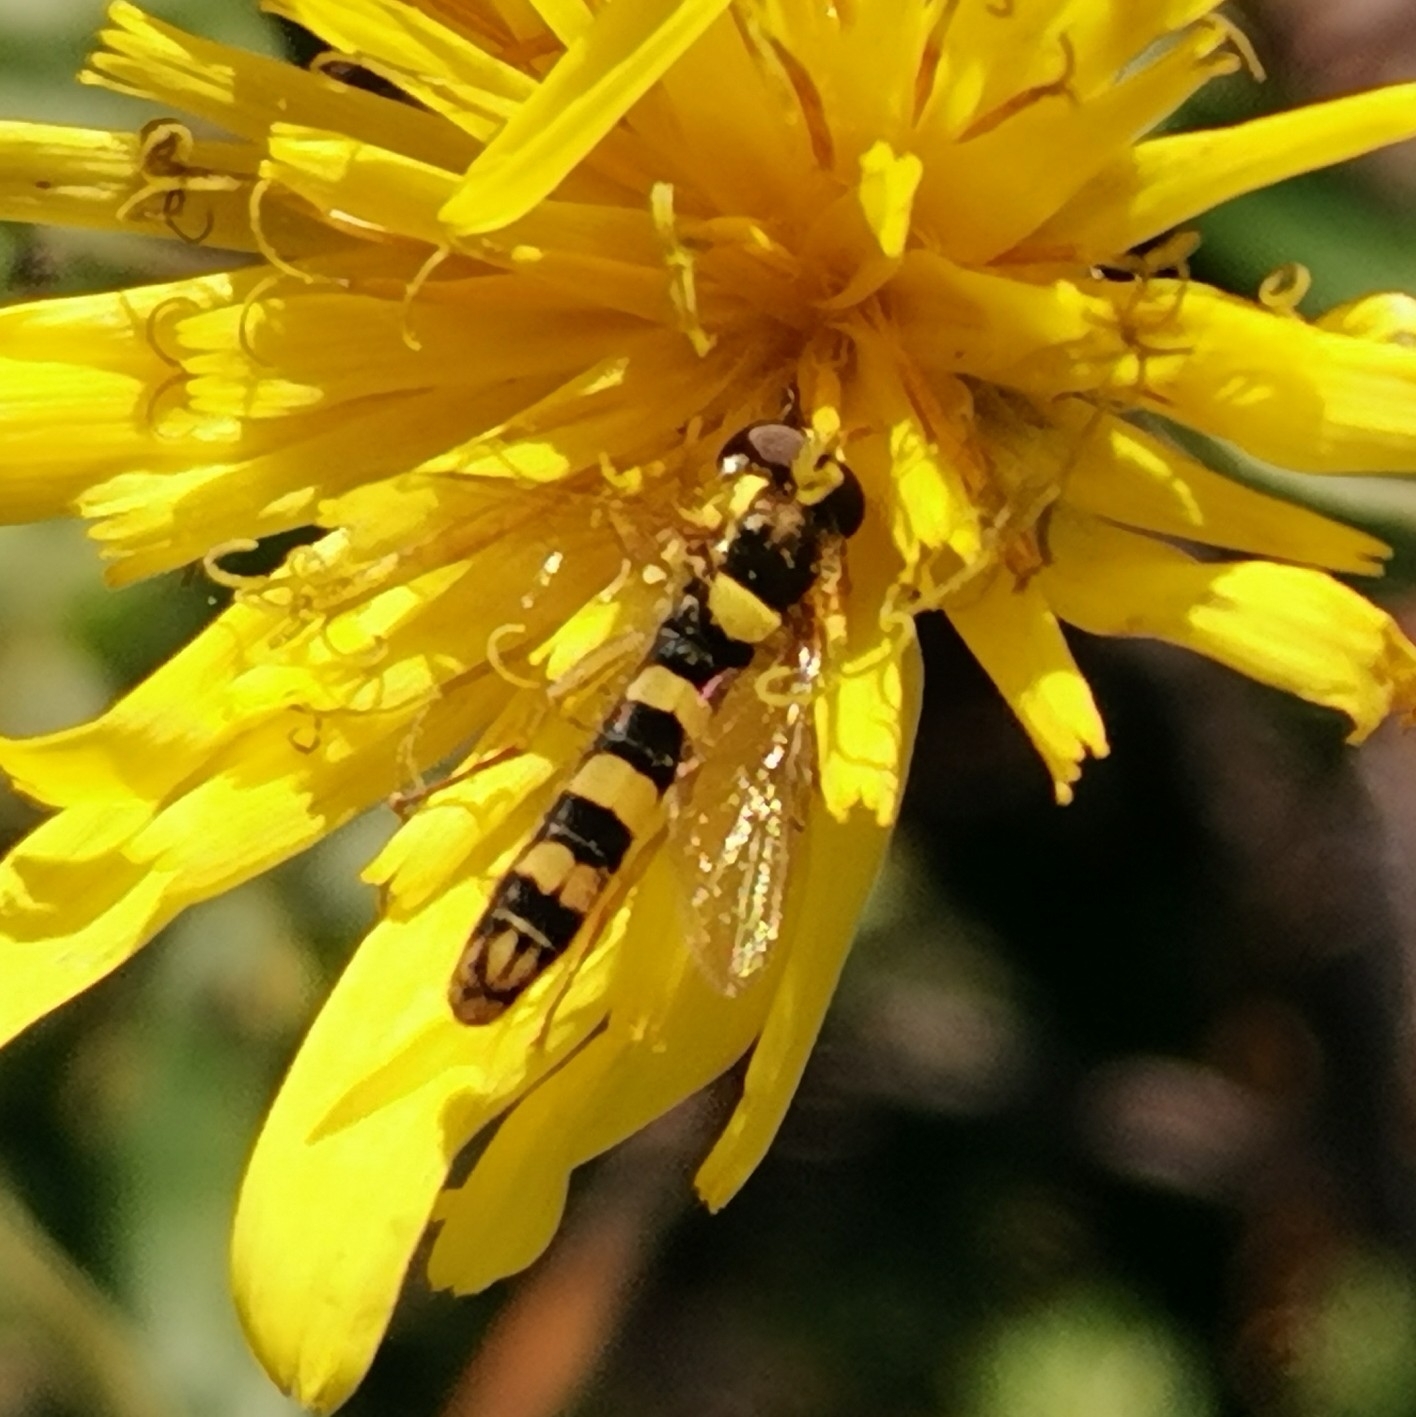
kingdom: Animalia
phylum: Arthropoda
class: Insecta
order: Diptera
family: Syrphidae
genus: Sphaerophoria
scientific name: Sphaerophoria scripta
